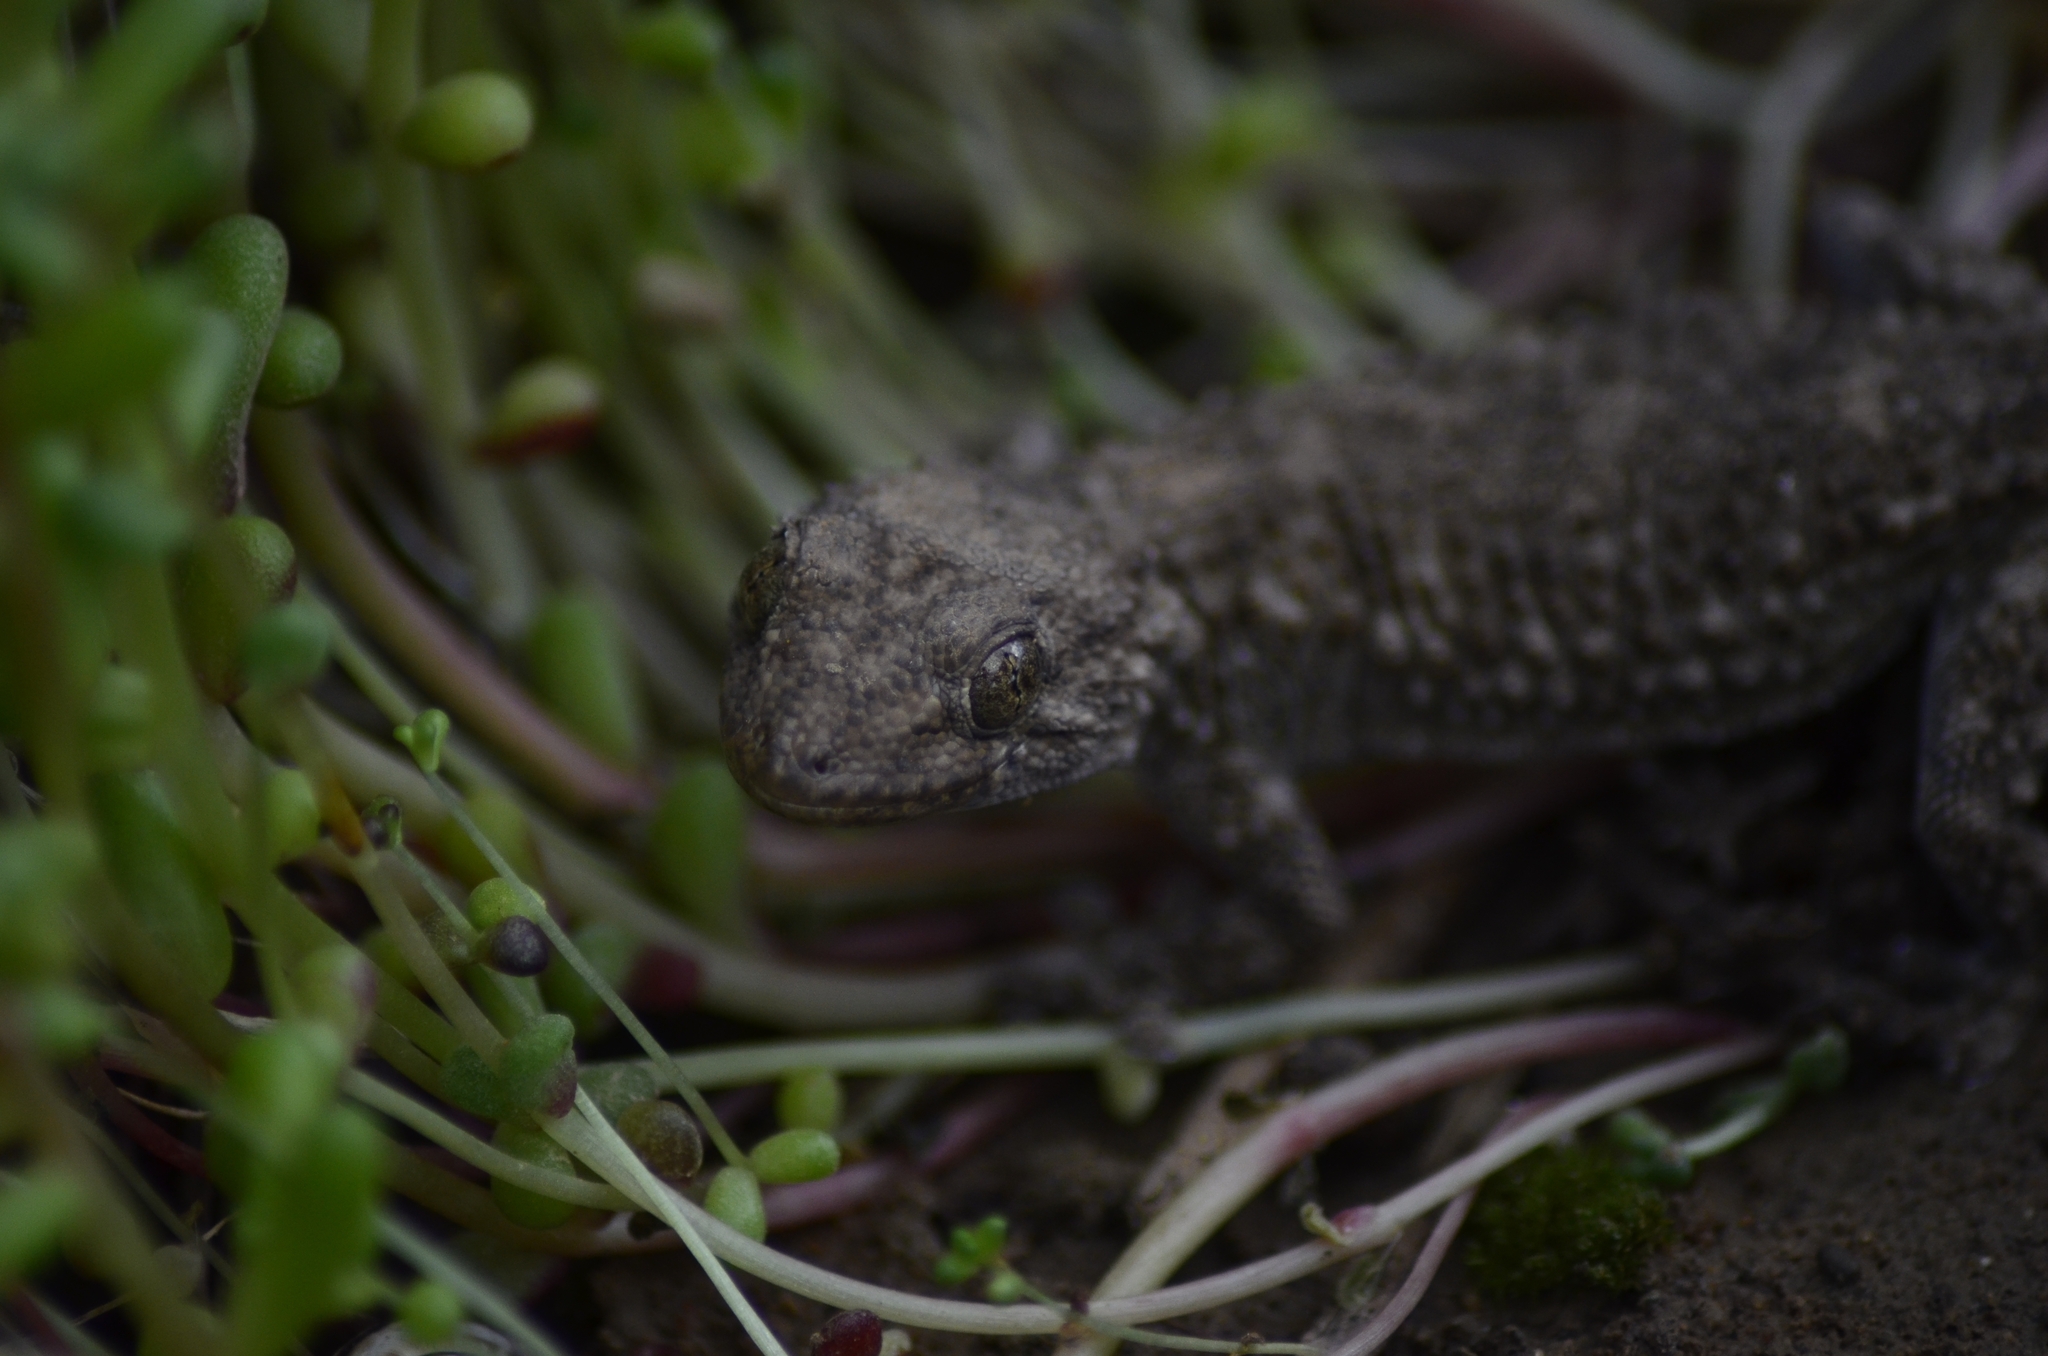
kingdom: Animalia
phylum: Chordata
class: Squamata
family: Phyllodactylidae
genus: Tarentola
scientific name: Tarentola mauritanica
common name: Moorish gecko
